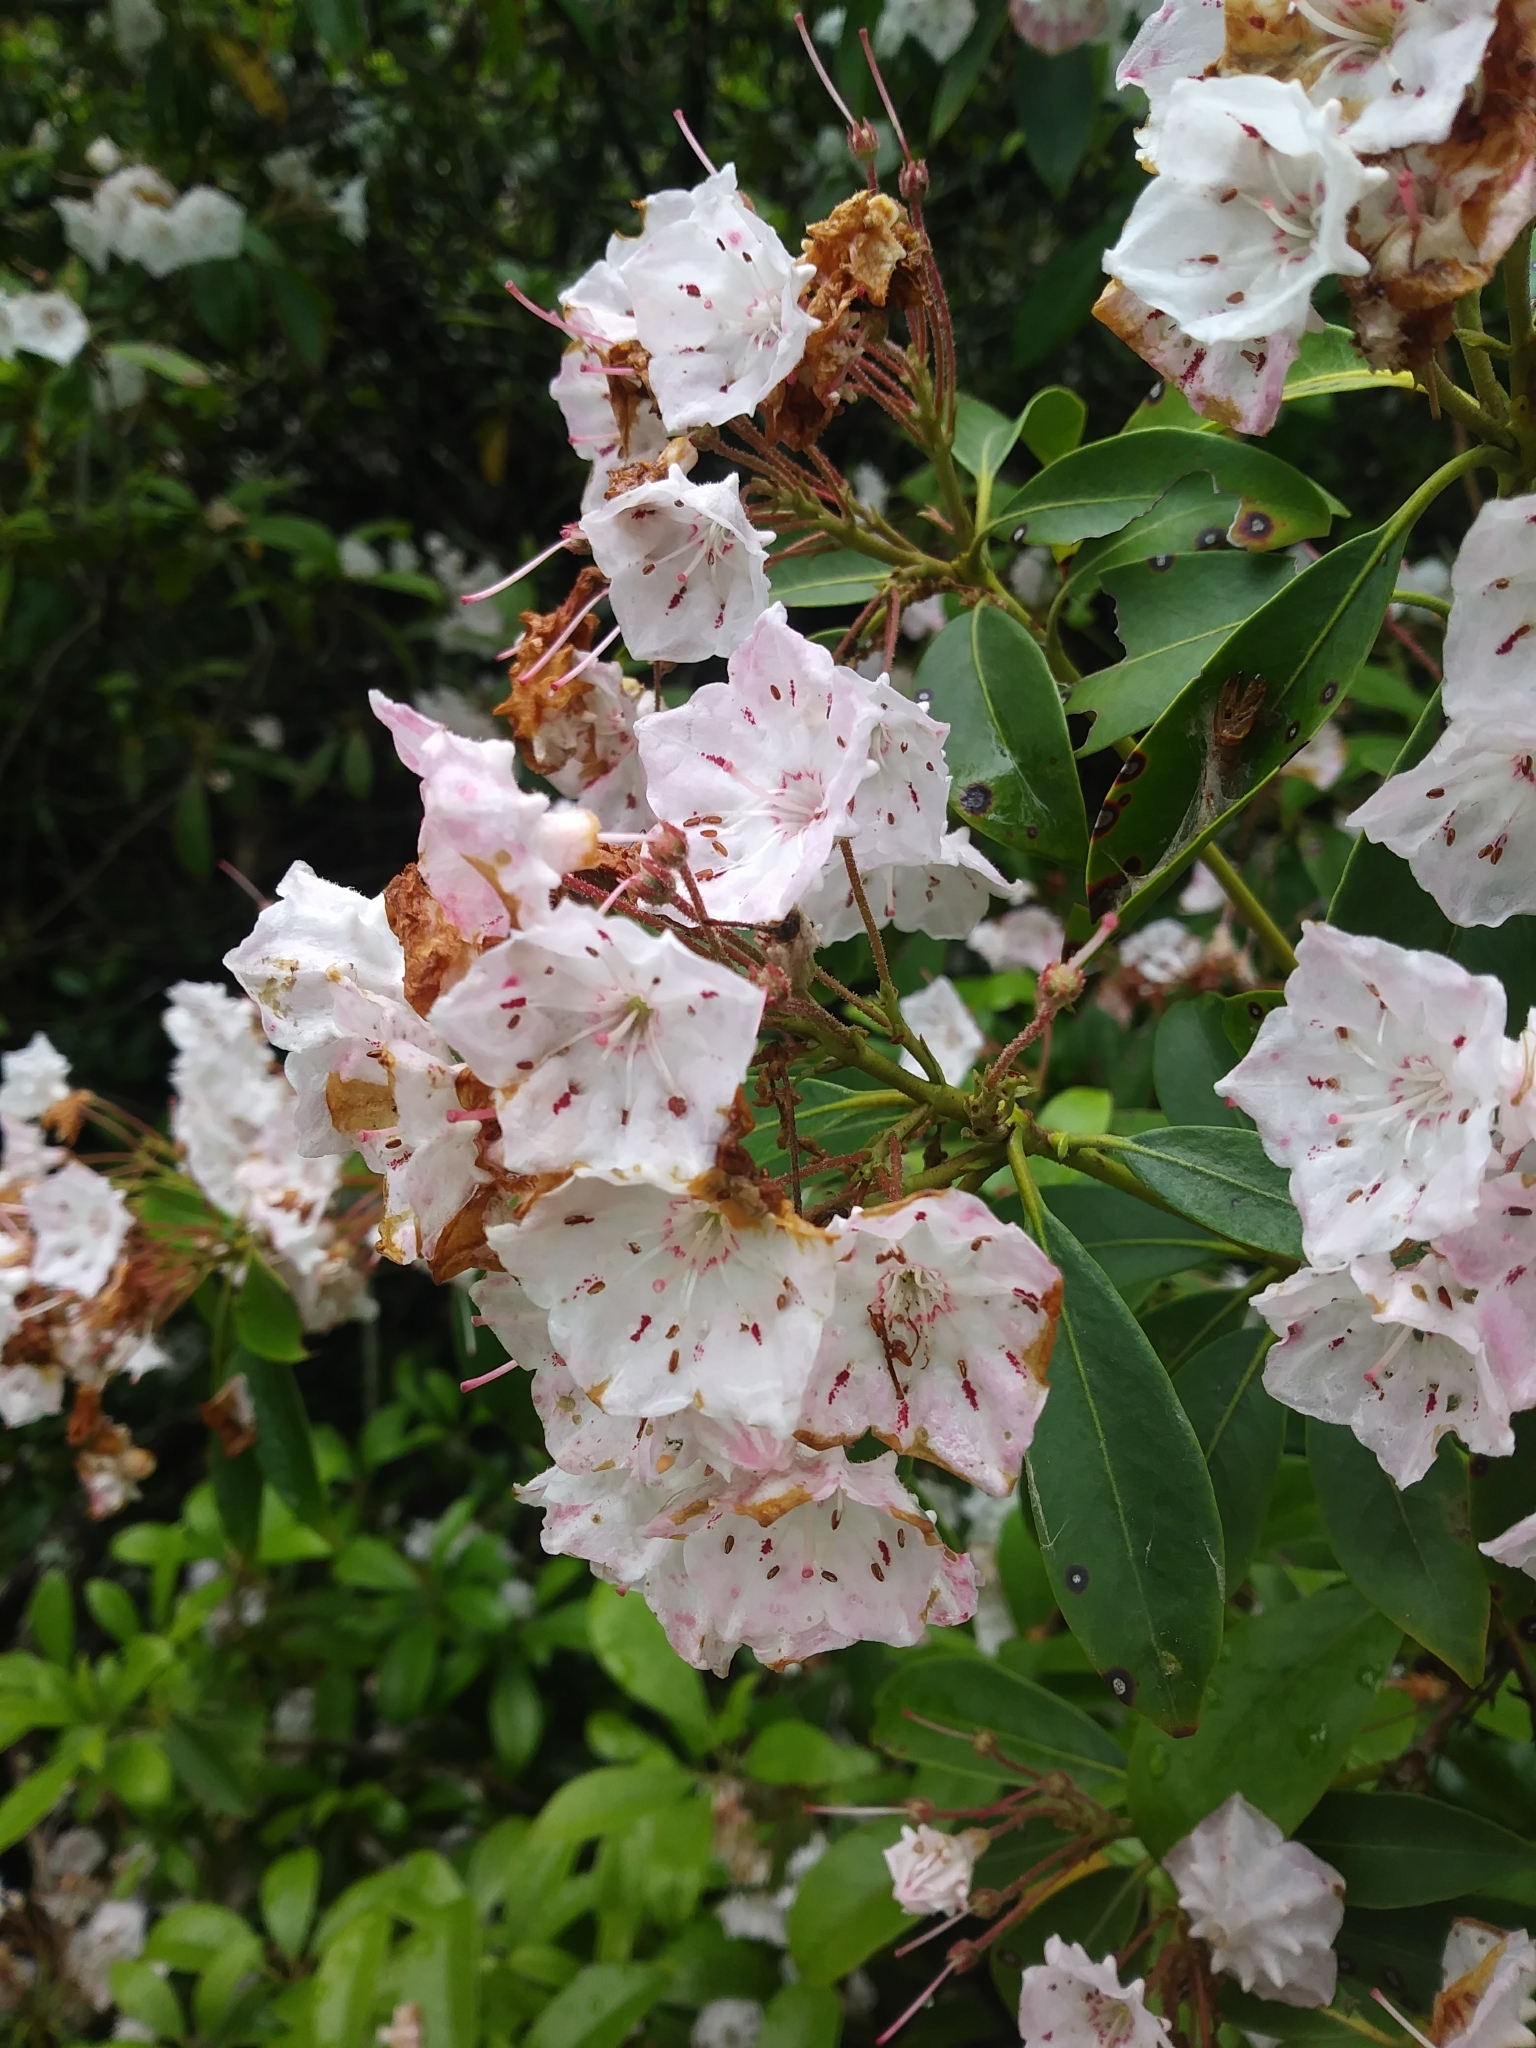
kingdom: Plantae
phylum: Tracheophyta
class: Magnoliopsida
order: Ericales
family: Ericaceae
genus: Kalmia
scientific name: Kalmia latifolia
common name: Mountain-laurel
